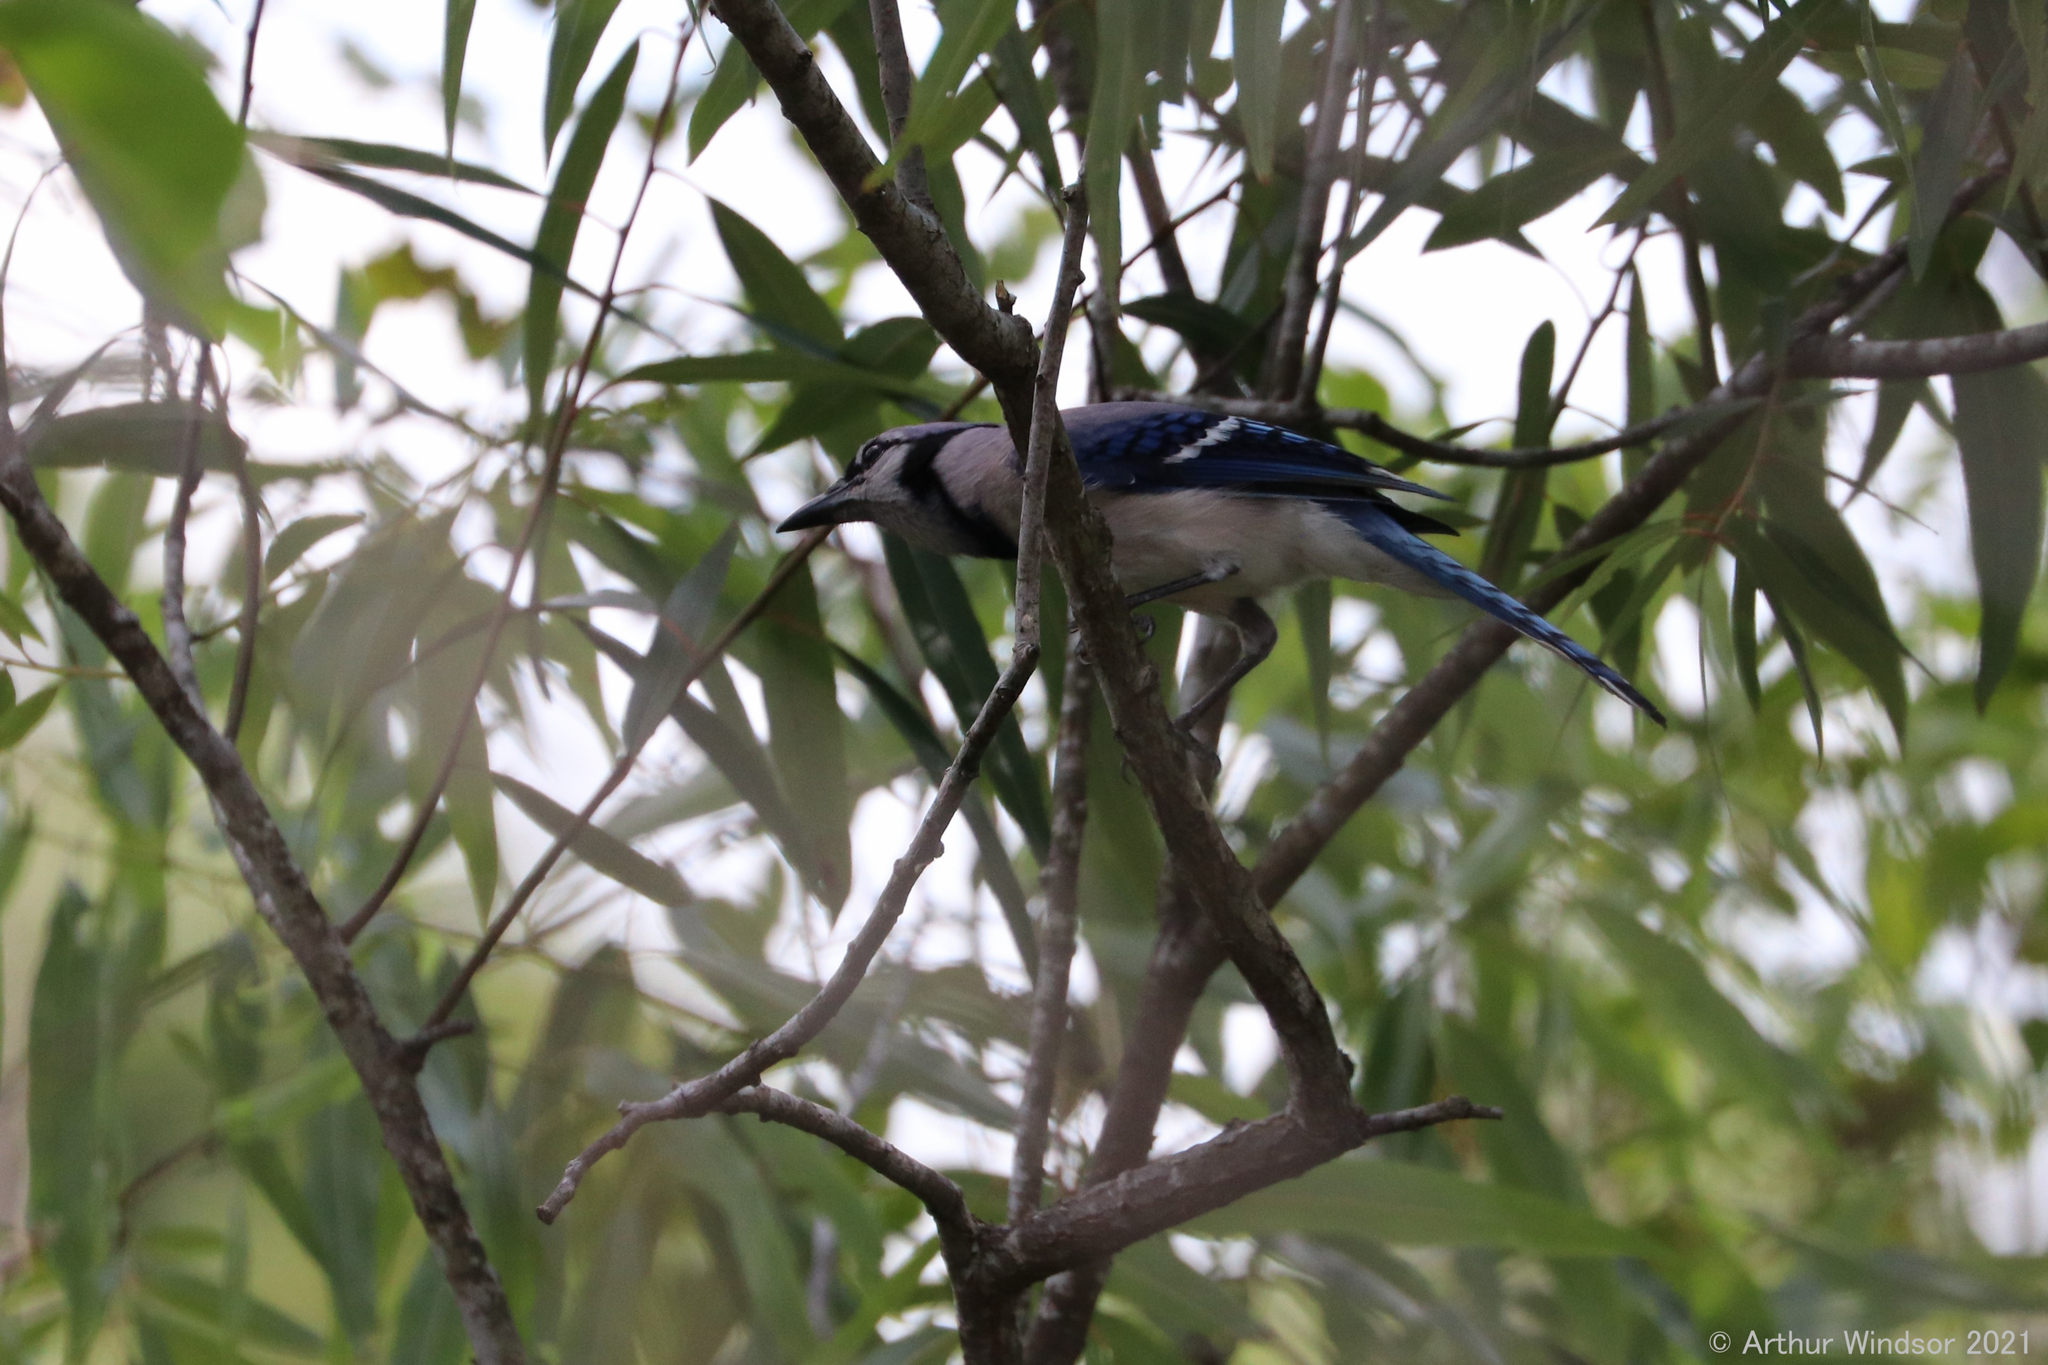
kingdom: Animalia
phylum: Chordata
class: Aves
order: Passeriformes
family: Corvidae
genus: Cyanocitta
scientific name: Cyanocitta cristata
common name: Blue jay
